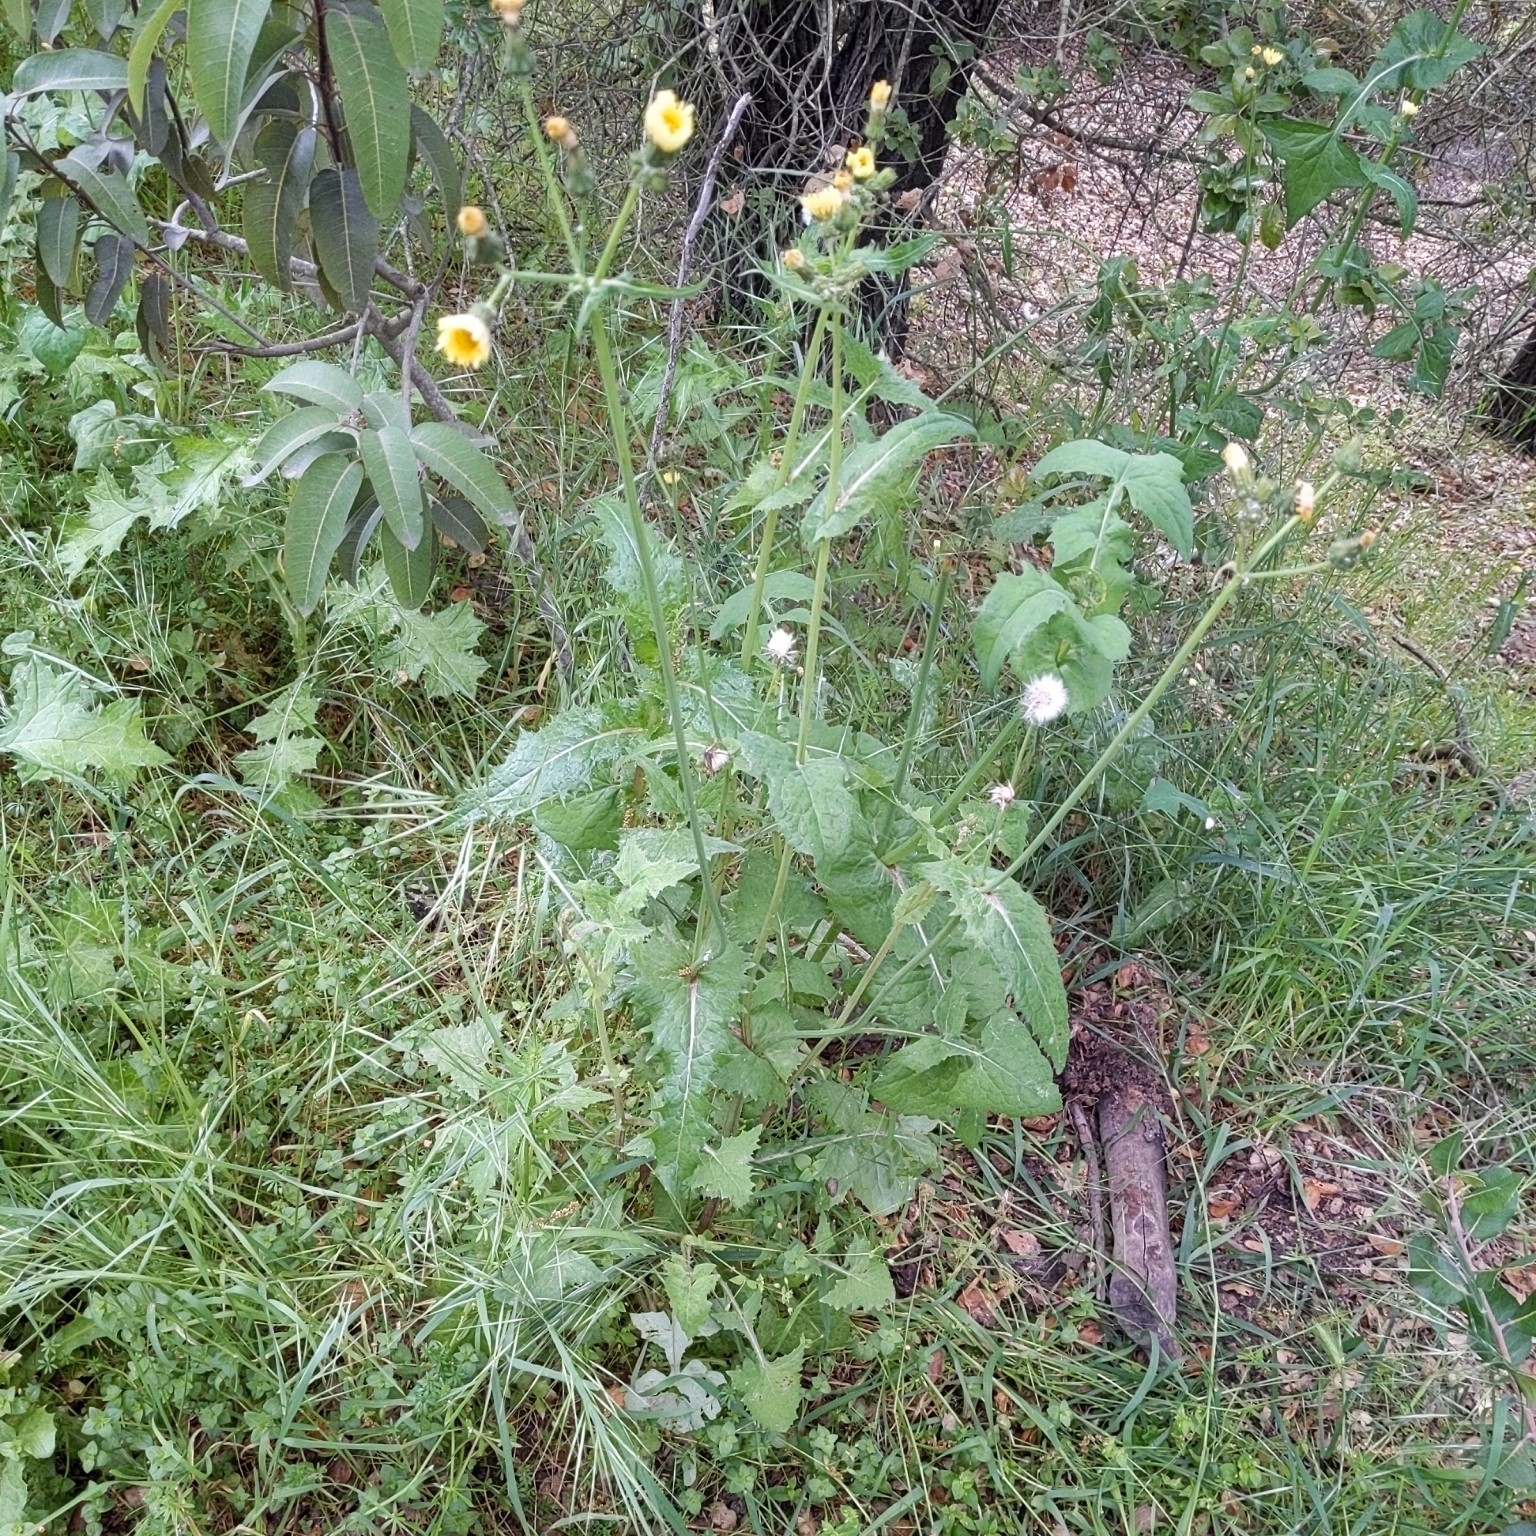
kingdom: Plantae
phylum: Tracheophyta
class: Magnoliopsida
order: Asterales
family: Asteraceae
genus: Sonchus
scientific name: Sonchus oleraceus
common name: Common sowthistle
